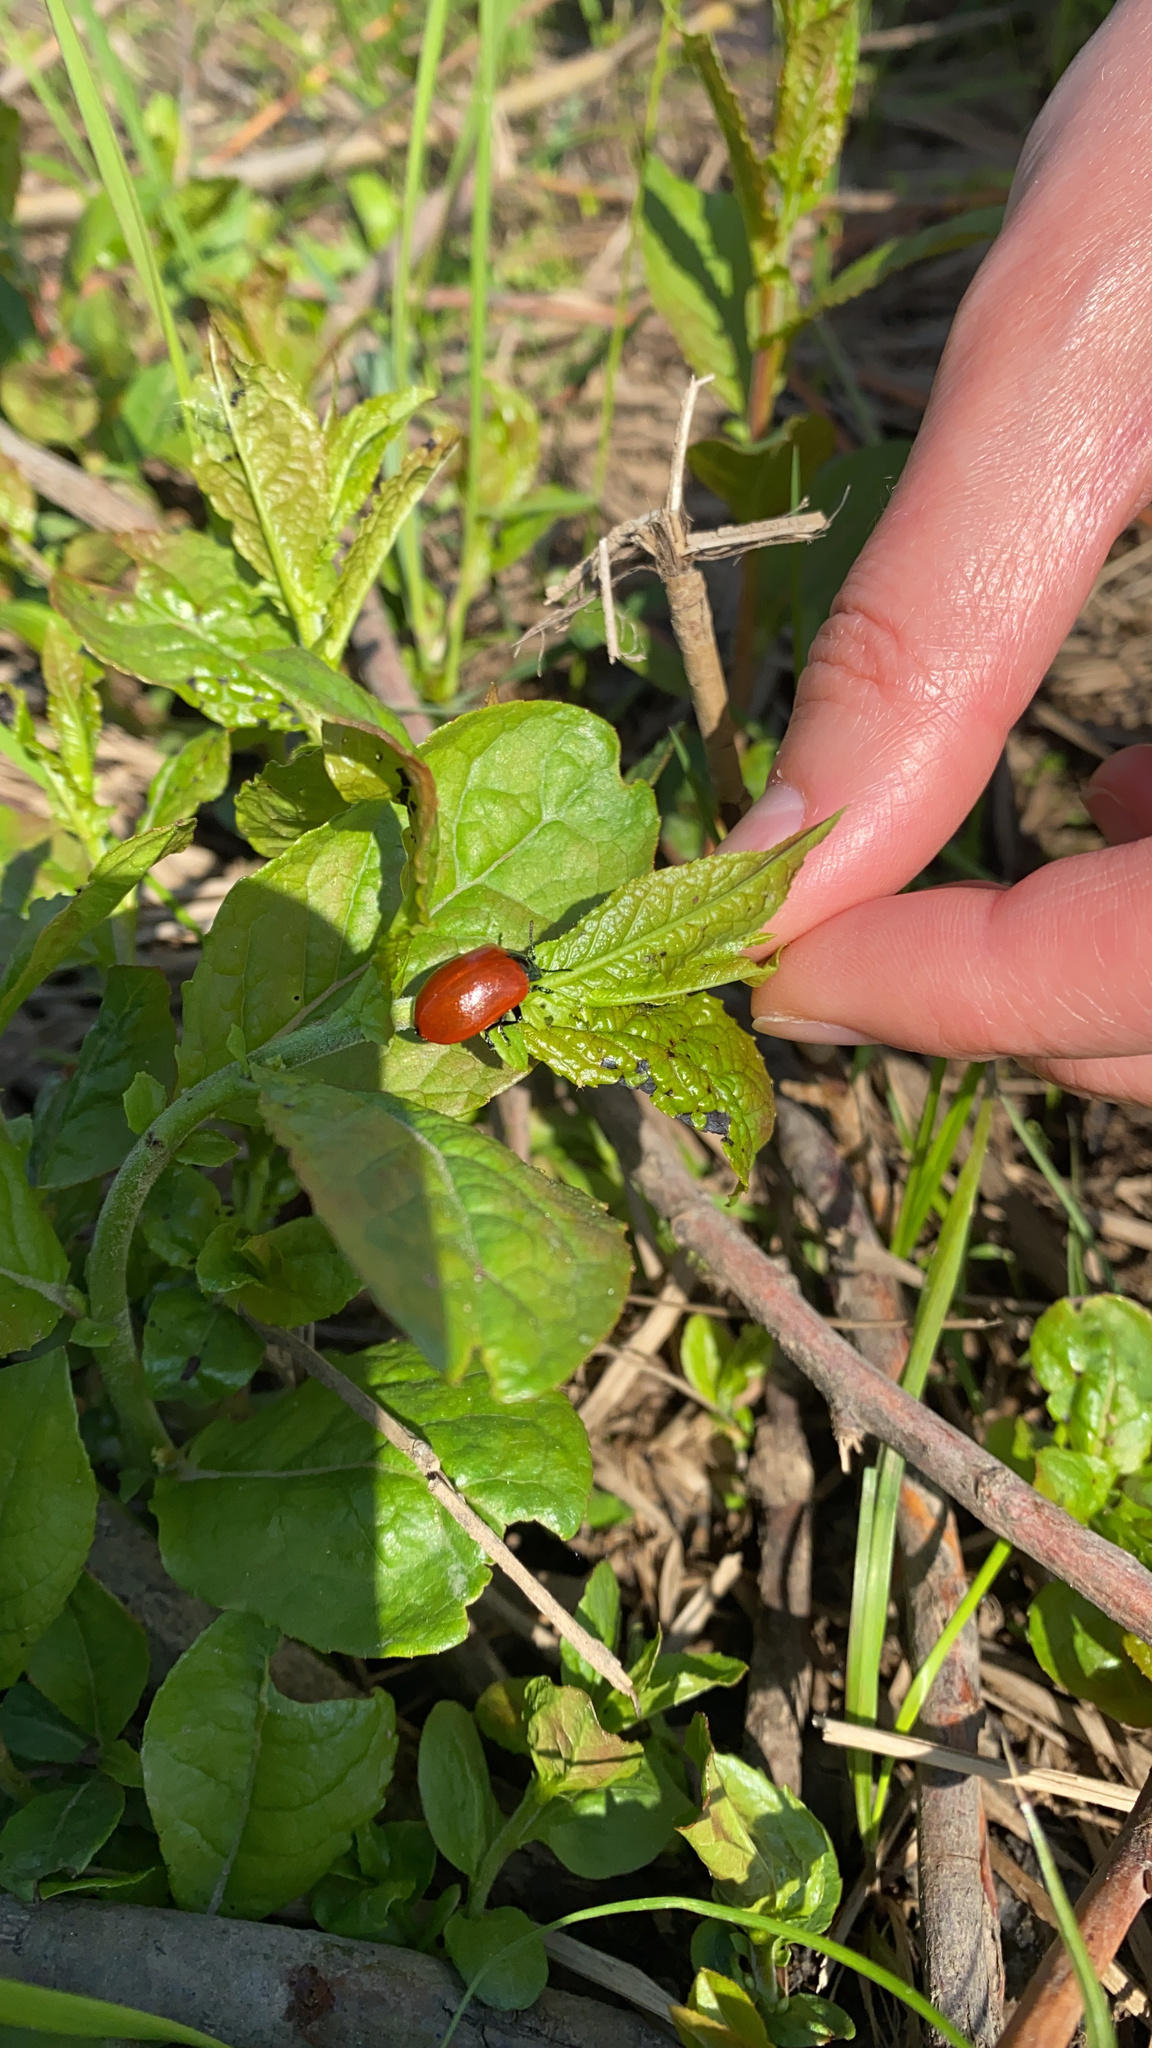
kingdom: Animalia
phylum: Arthropoda
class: Insecta
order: Coleoptera
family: Chrysomelidae
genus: Chrysomela
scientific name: Chrysomela populi
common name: Red poplar leaf beetle
